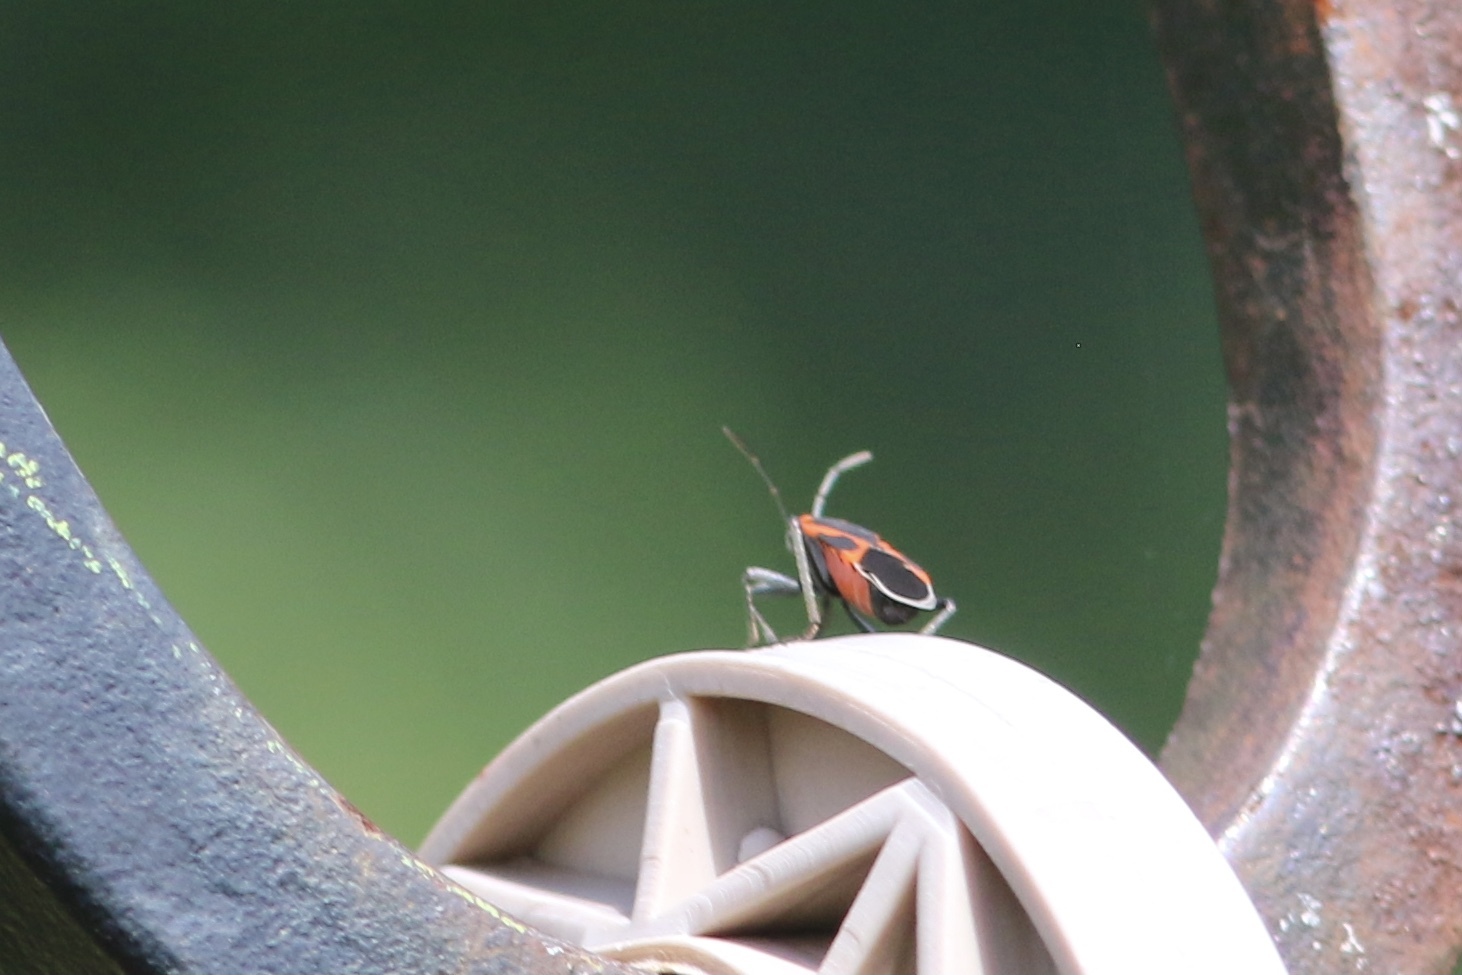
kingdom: Animalia
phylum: Arthropoda
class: Insecta
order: Hemiptera
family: Lygaeidae
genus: Lygaeus
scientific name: Lygaeus kalmii
